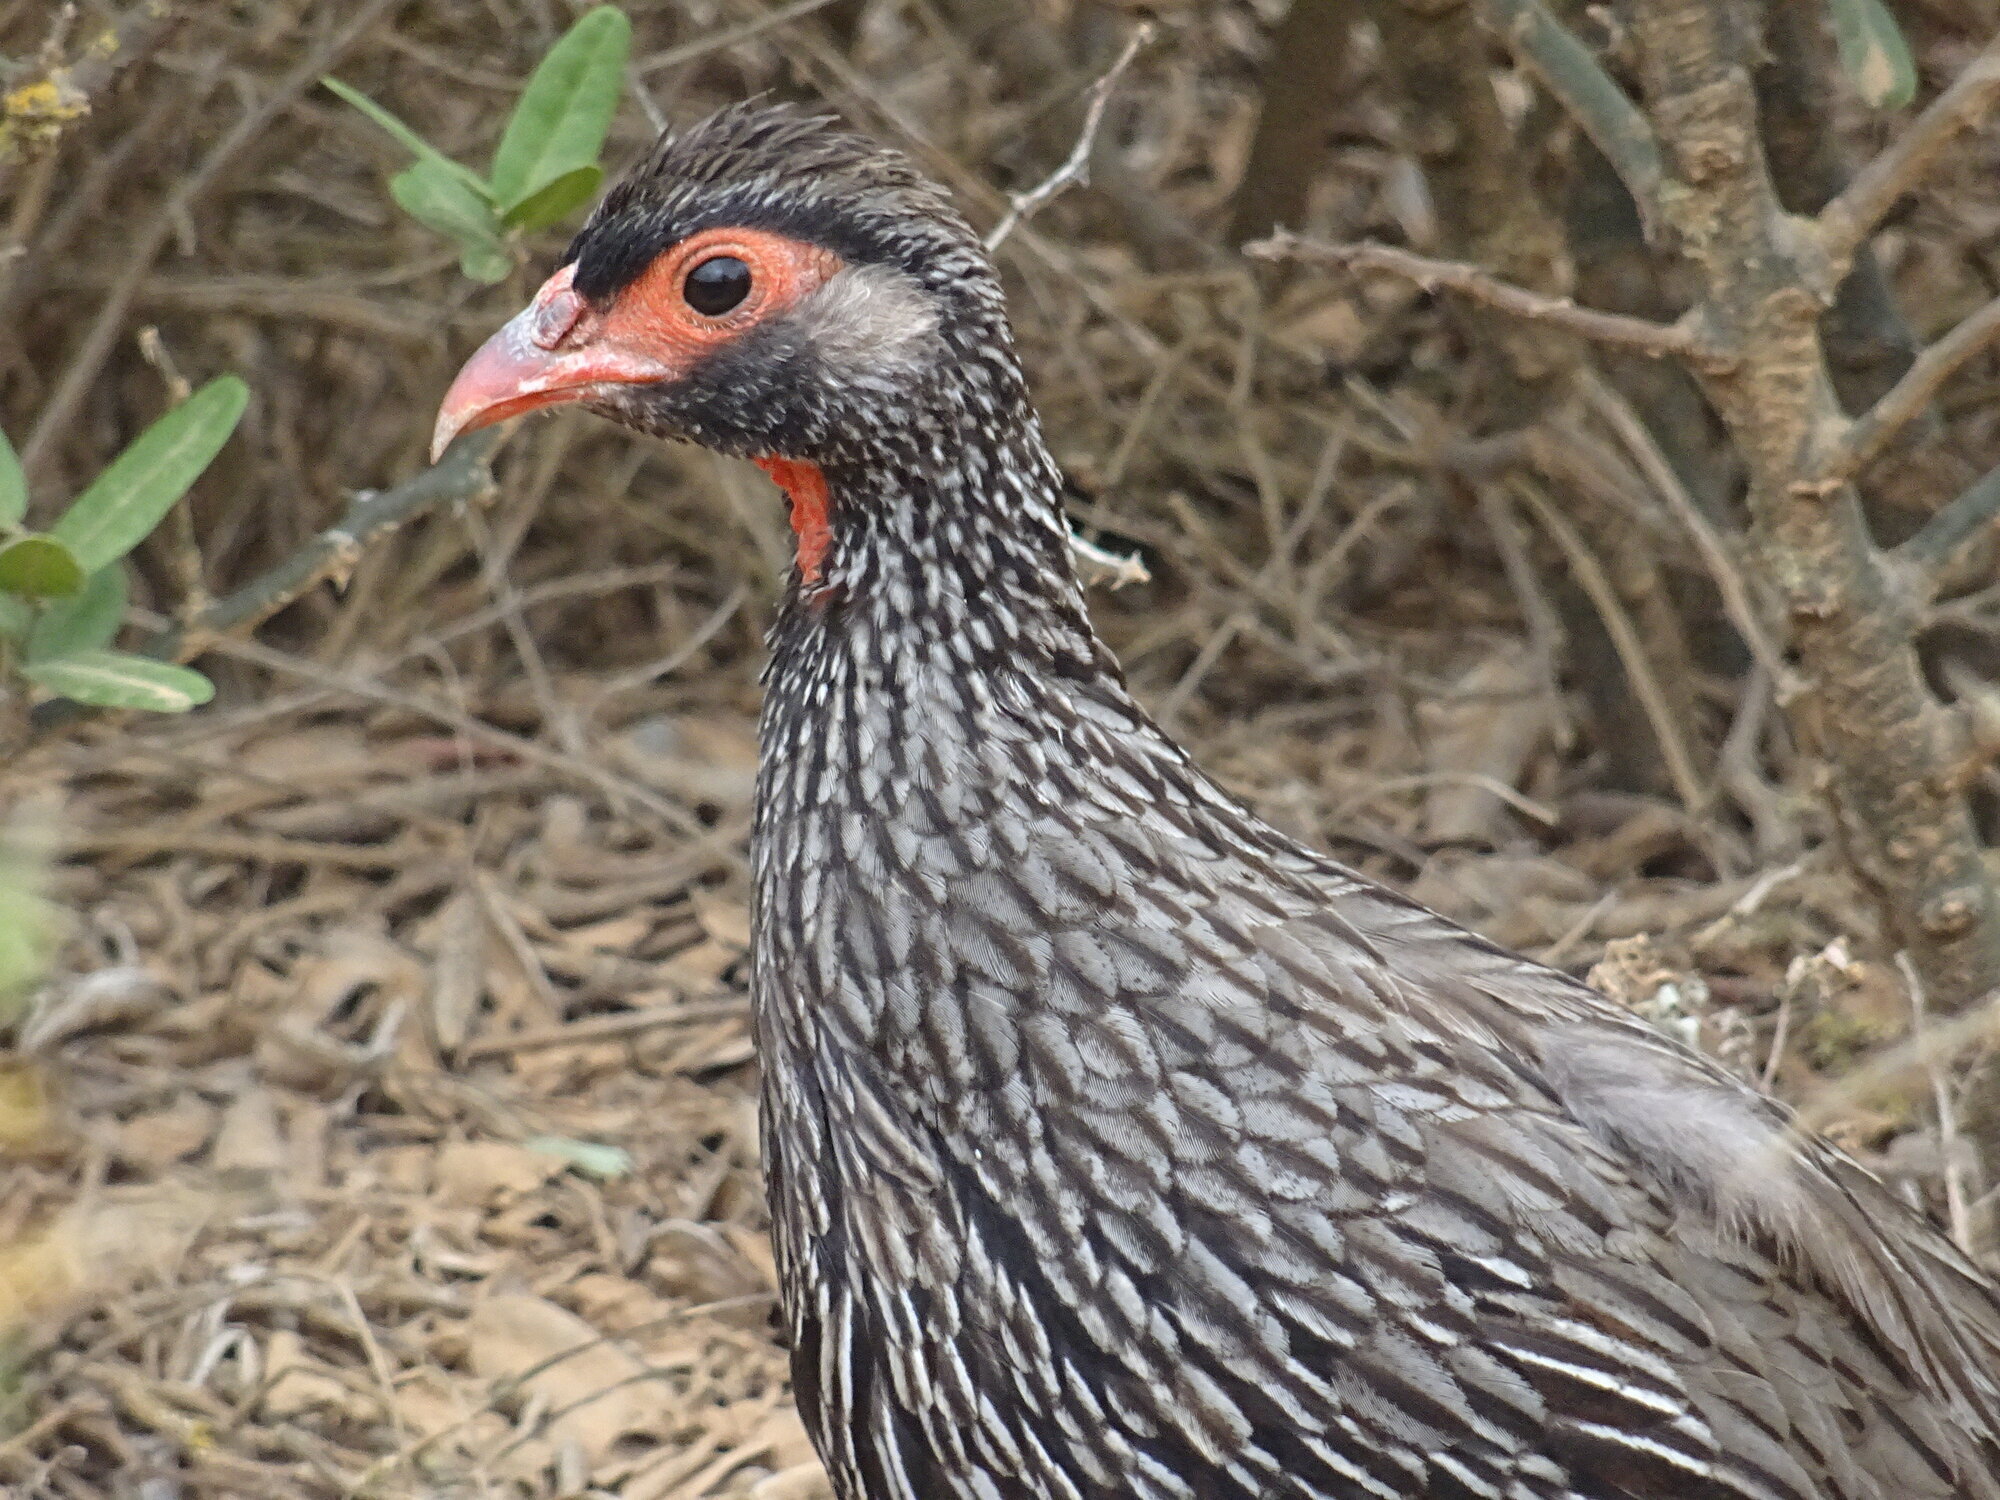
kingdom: Animalia
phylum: Chordata
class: Aves
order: Galliformes
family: Phasianidae
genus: Pternistis
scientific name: Pternistis afer
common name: Red-necked spurfowl
